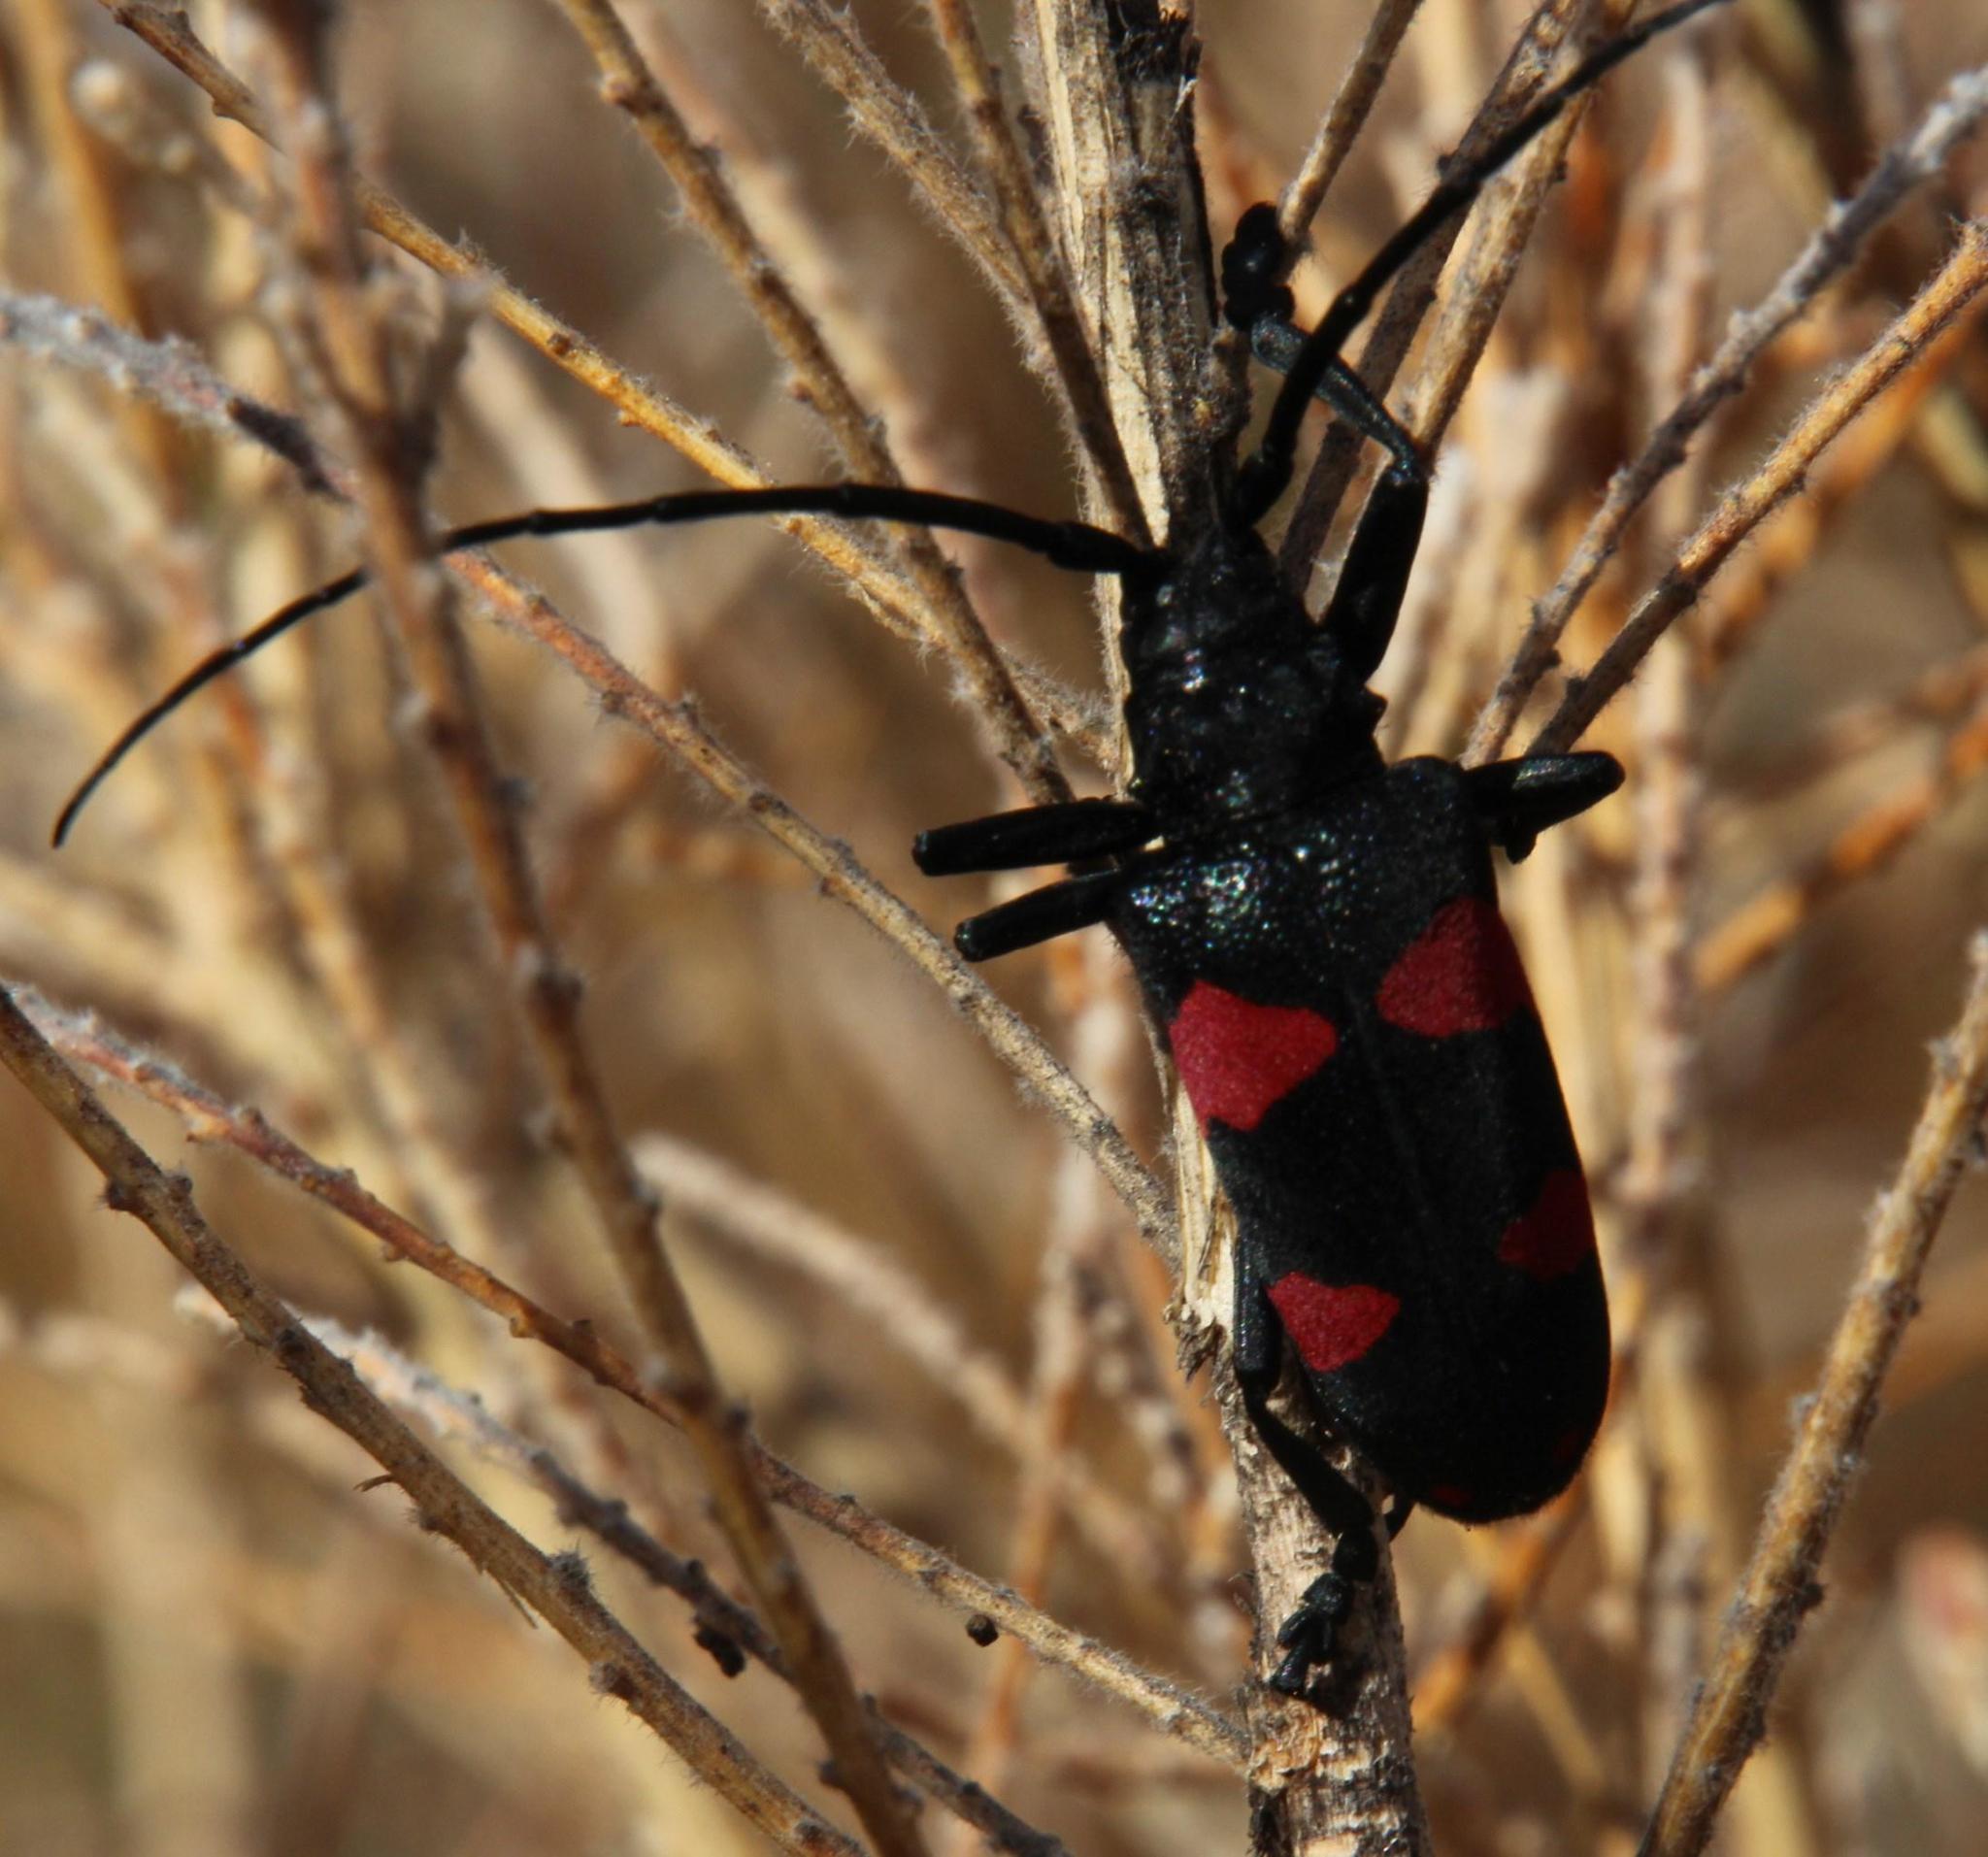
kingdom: Animalia
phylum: Arthropoda
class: Insecta
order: Coleoptera
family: Cerambycidae
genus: Ceroplesis
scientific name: Ceroplesis aethiops
